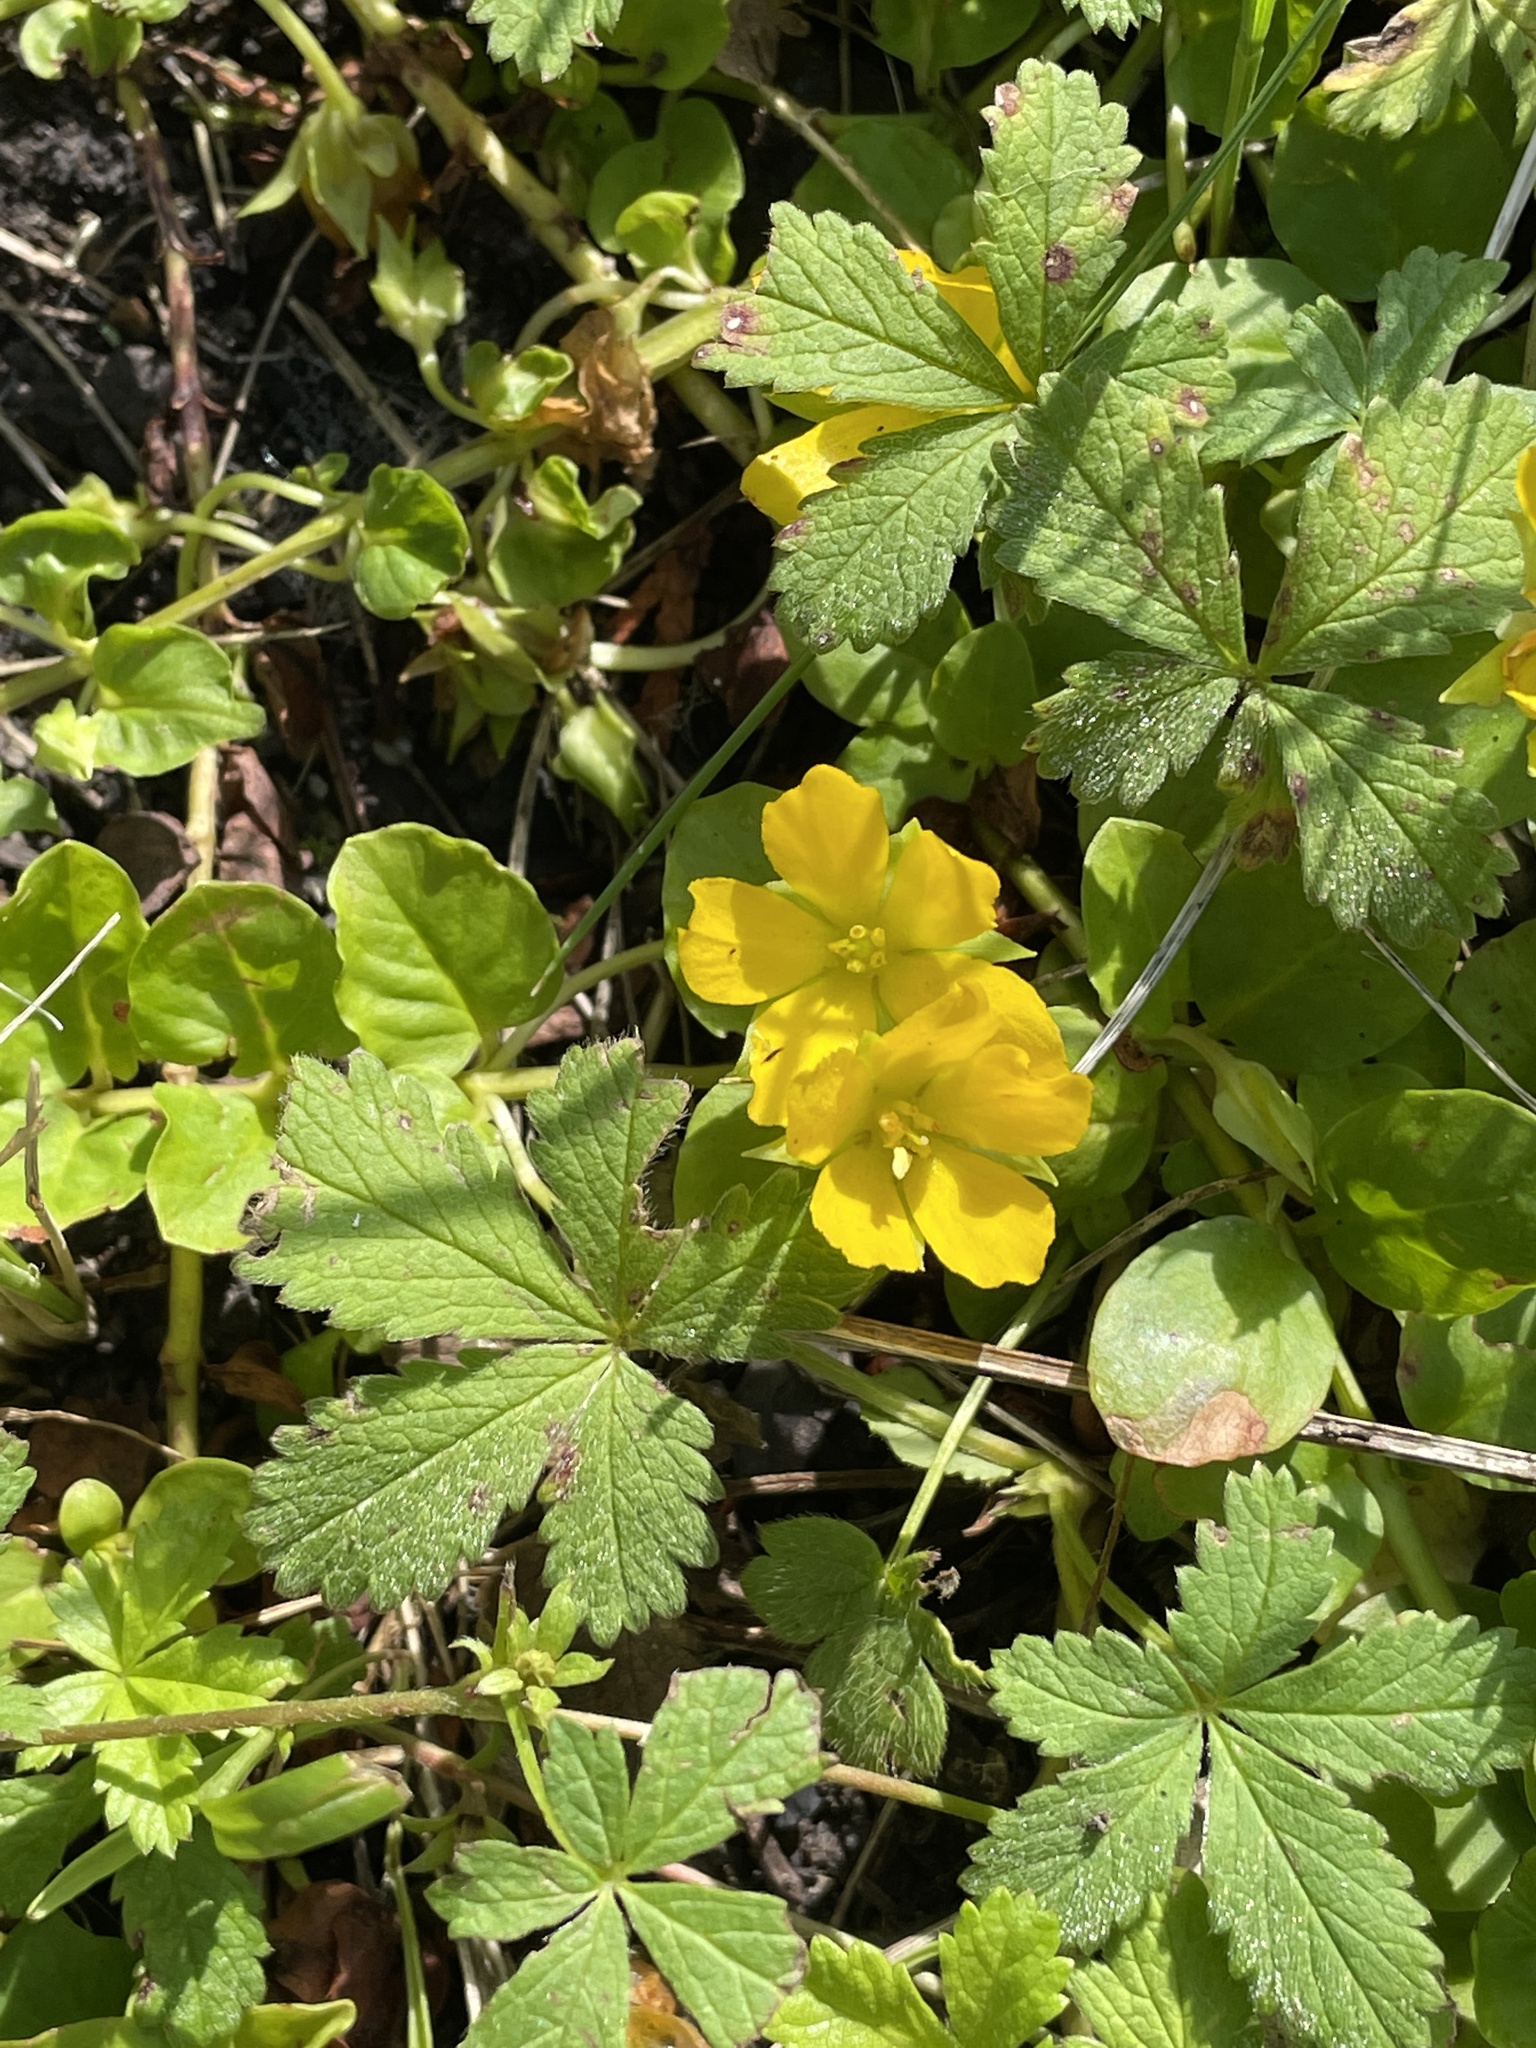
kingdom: Plantae
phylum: Tracheophyta
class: Magnoliopsida
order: Ericales
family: Primulaceae
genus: Lysimachia
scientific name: Lysimachia nummularia
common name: Moneywort
